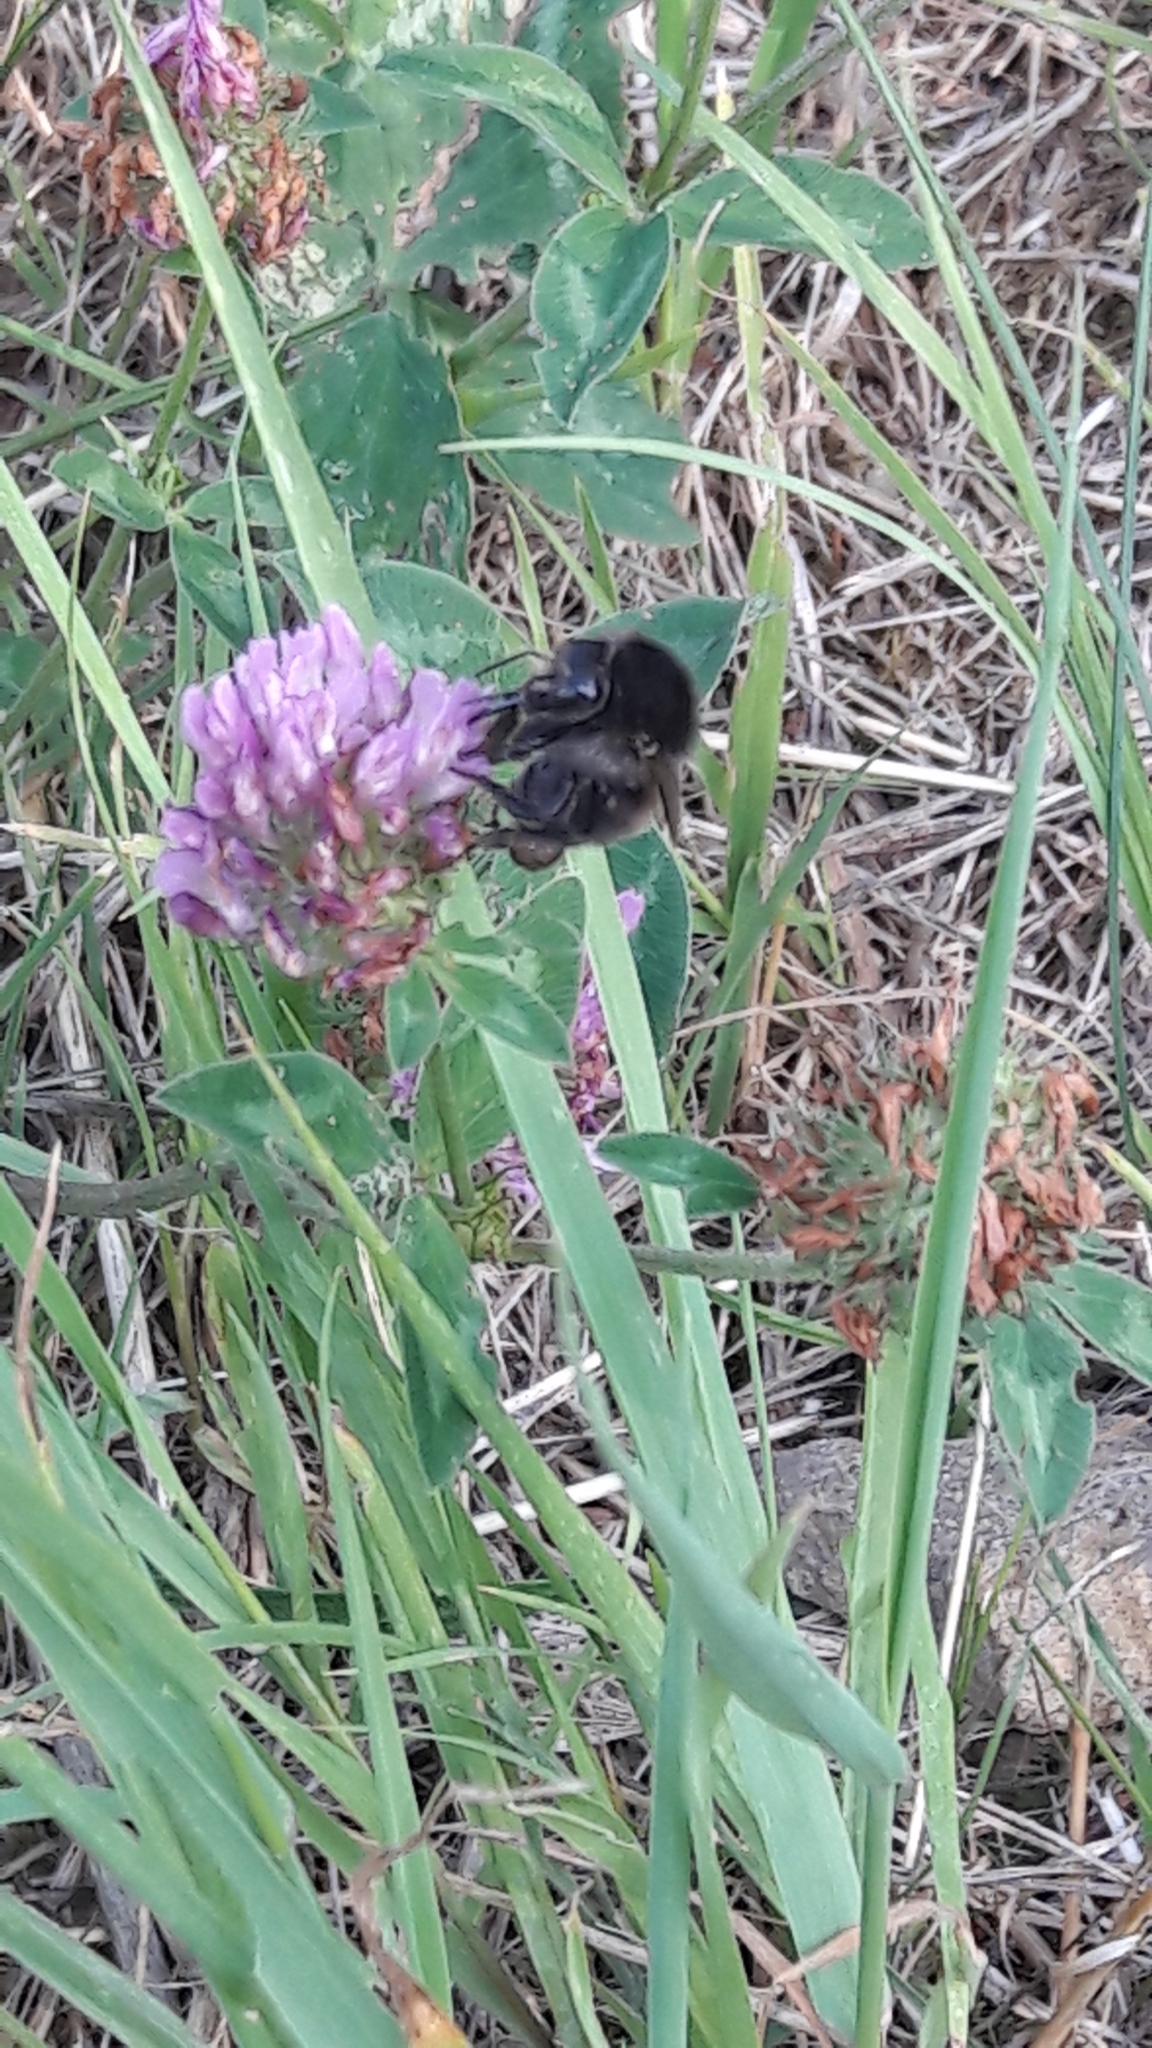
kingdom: Animalia
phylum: Arthropoda
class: Insecta
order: Hymenoptera
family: Apidae
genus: Bombus
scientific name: Bombus humilis
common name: Brown-banded carder-bee
